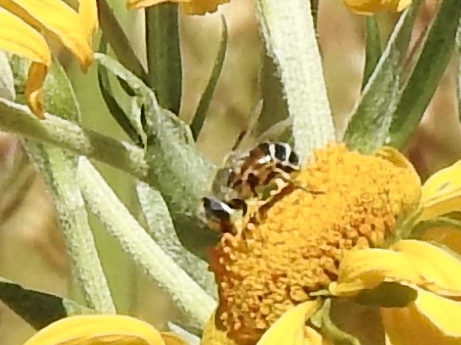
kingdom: Animalia
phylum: Arthropoda
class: Insecta
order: Diptera
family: Syrphidae
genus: Eristalis
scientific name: Eristalis stipator
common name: Yellow-shouldered drone fly
